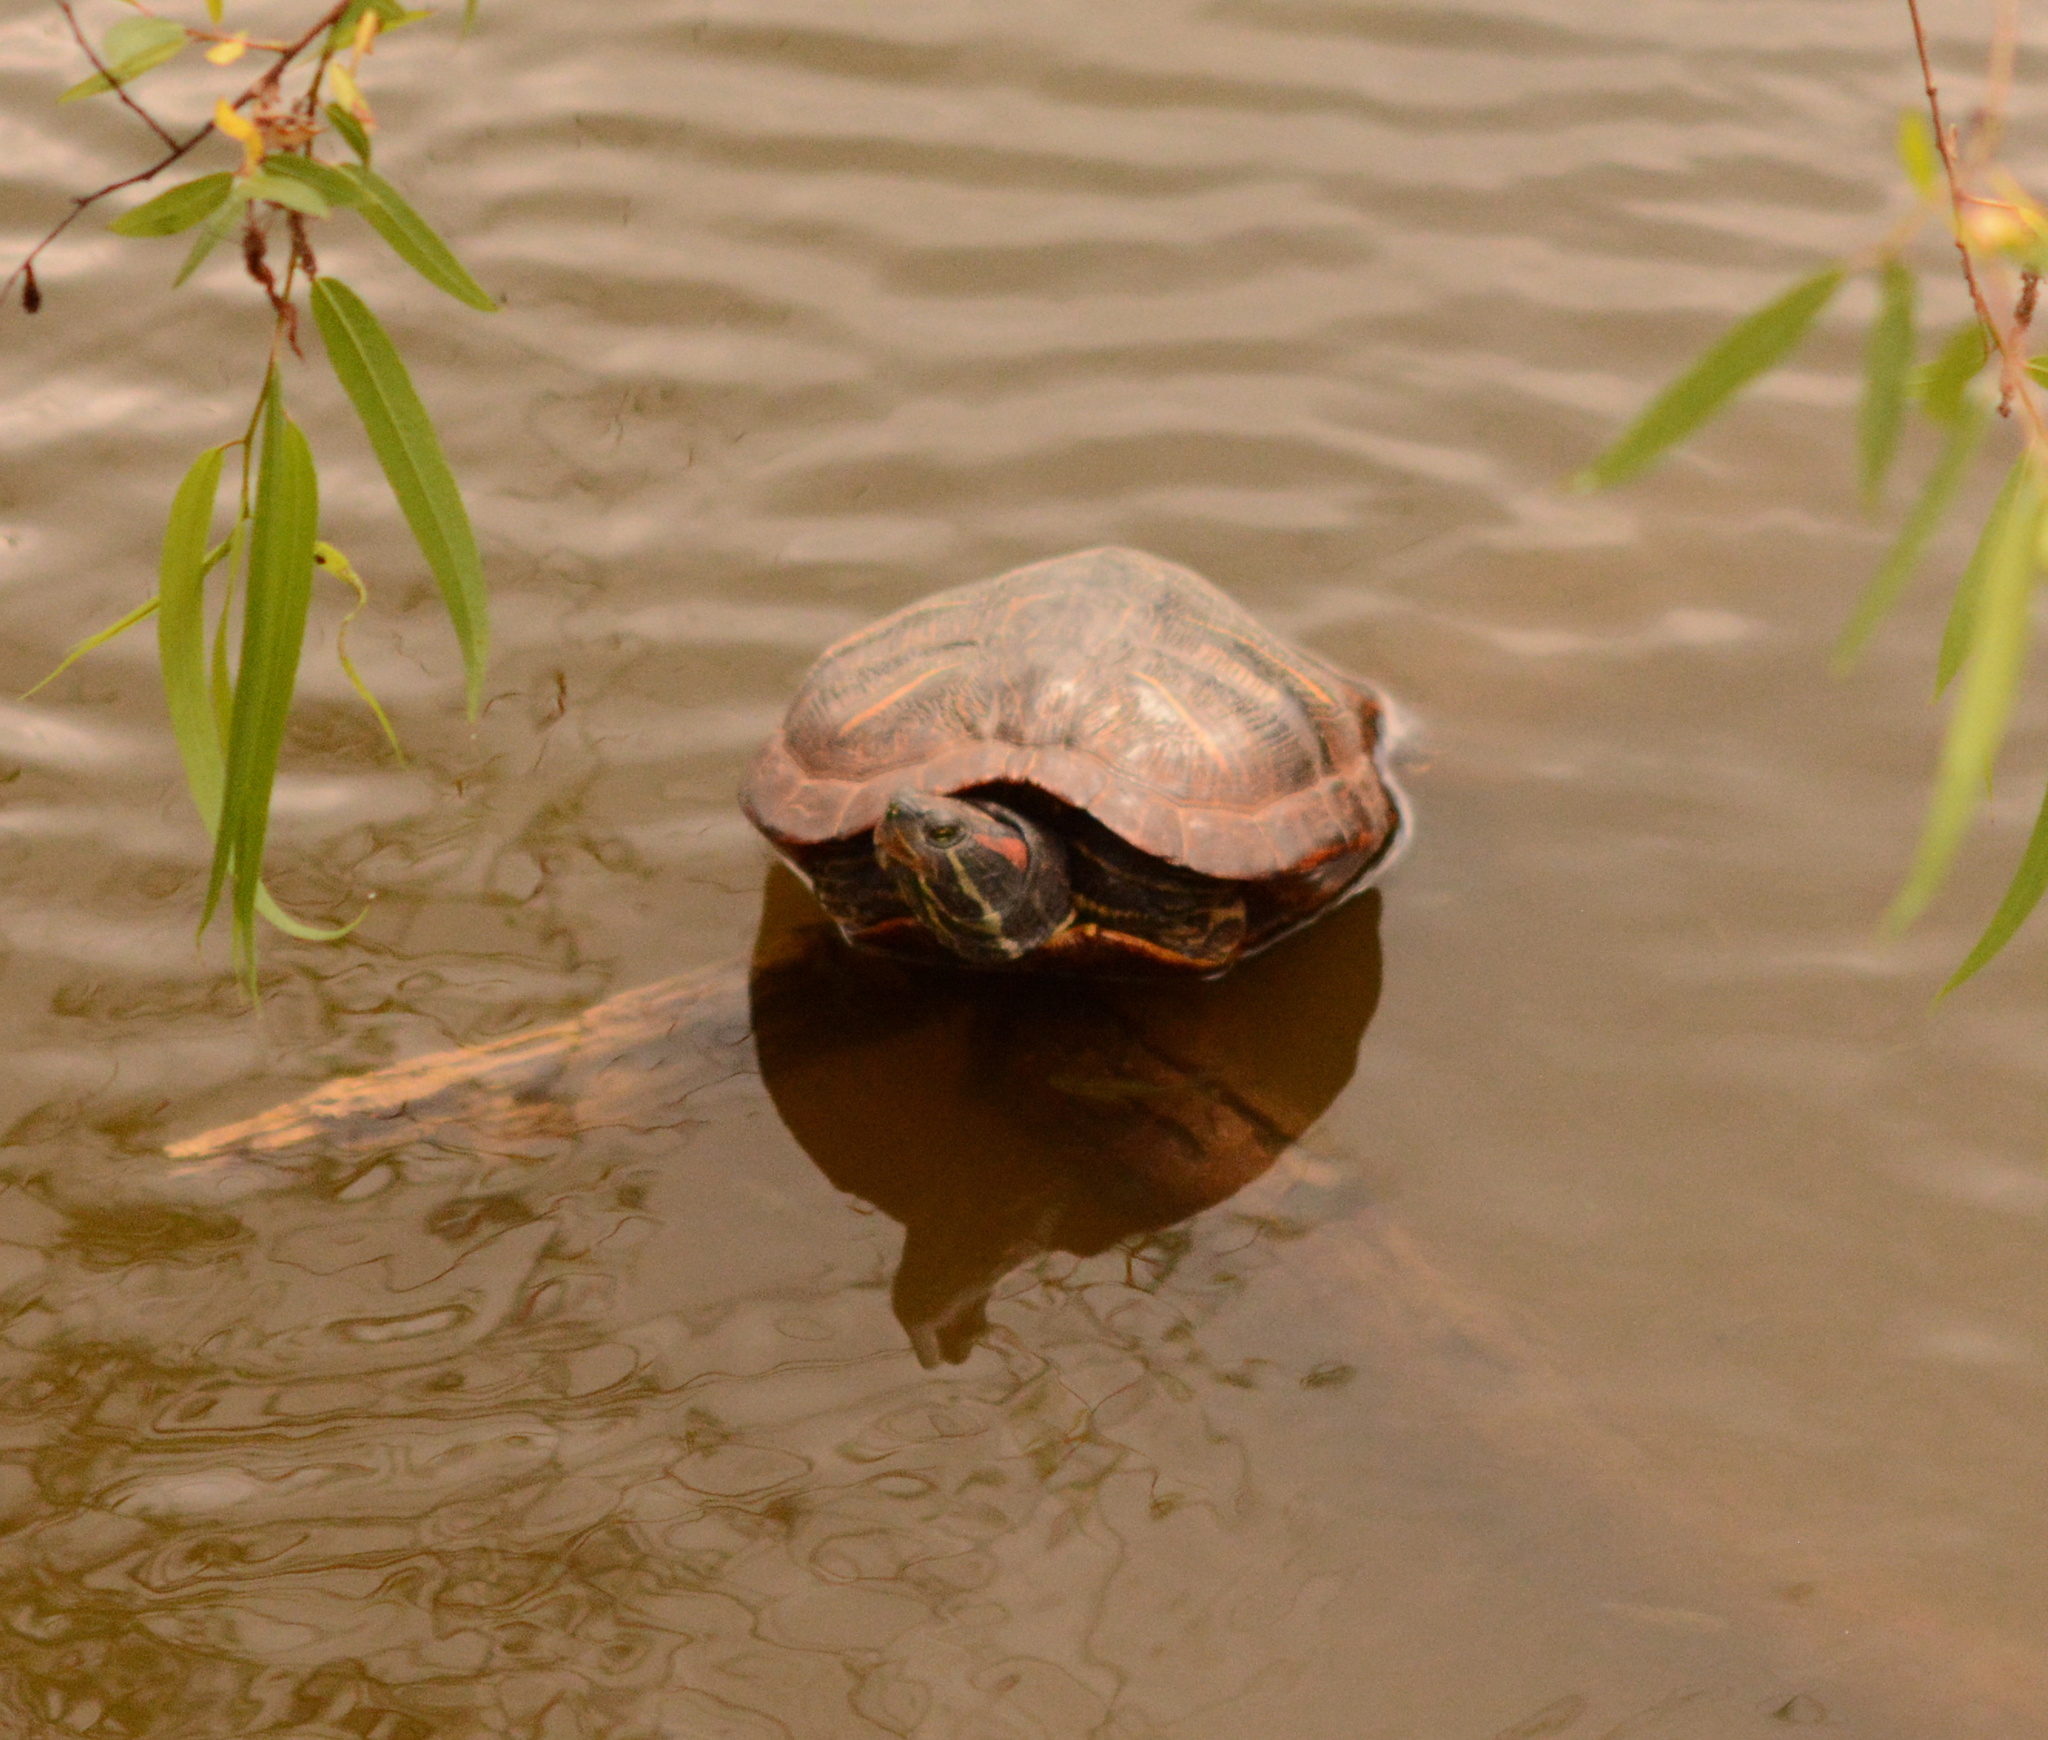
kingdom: Animalia
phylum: Chordata
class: Testudines
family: Emydidae
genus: Trachemys
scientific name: Trachemys scripta
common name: Slider
